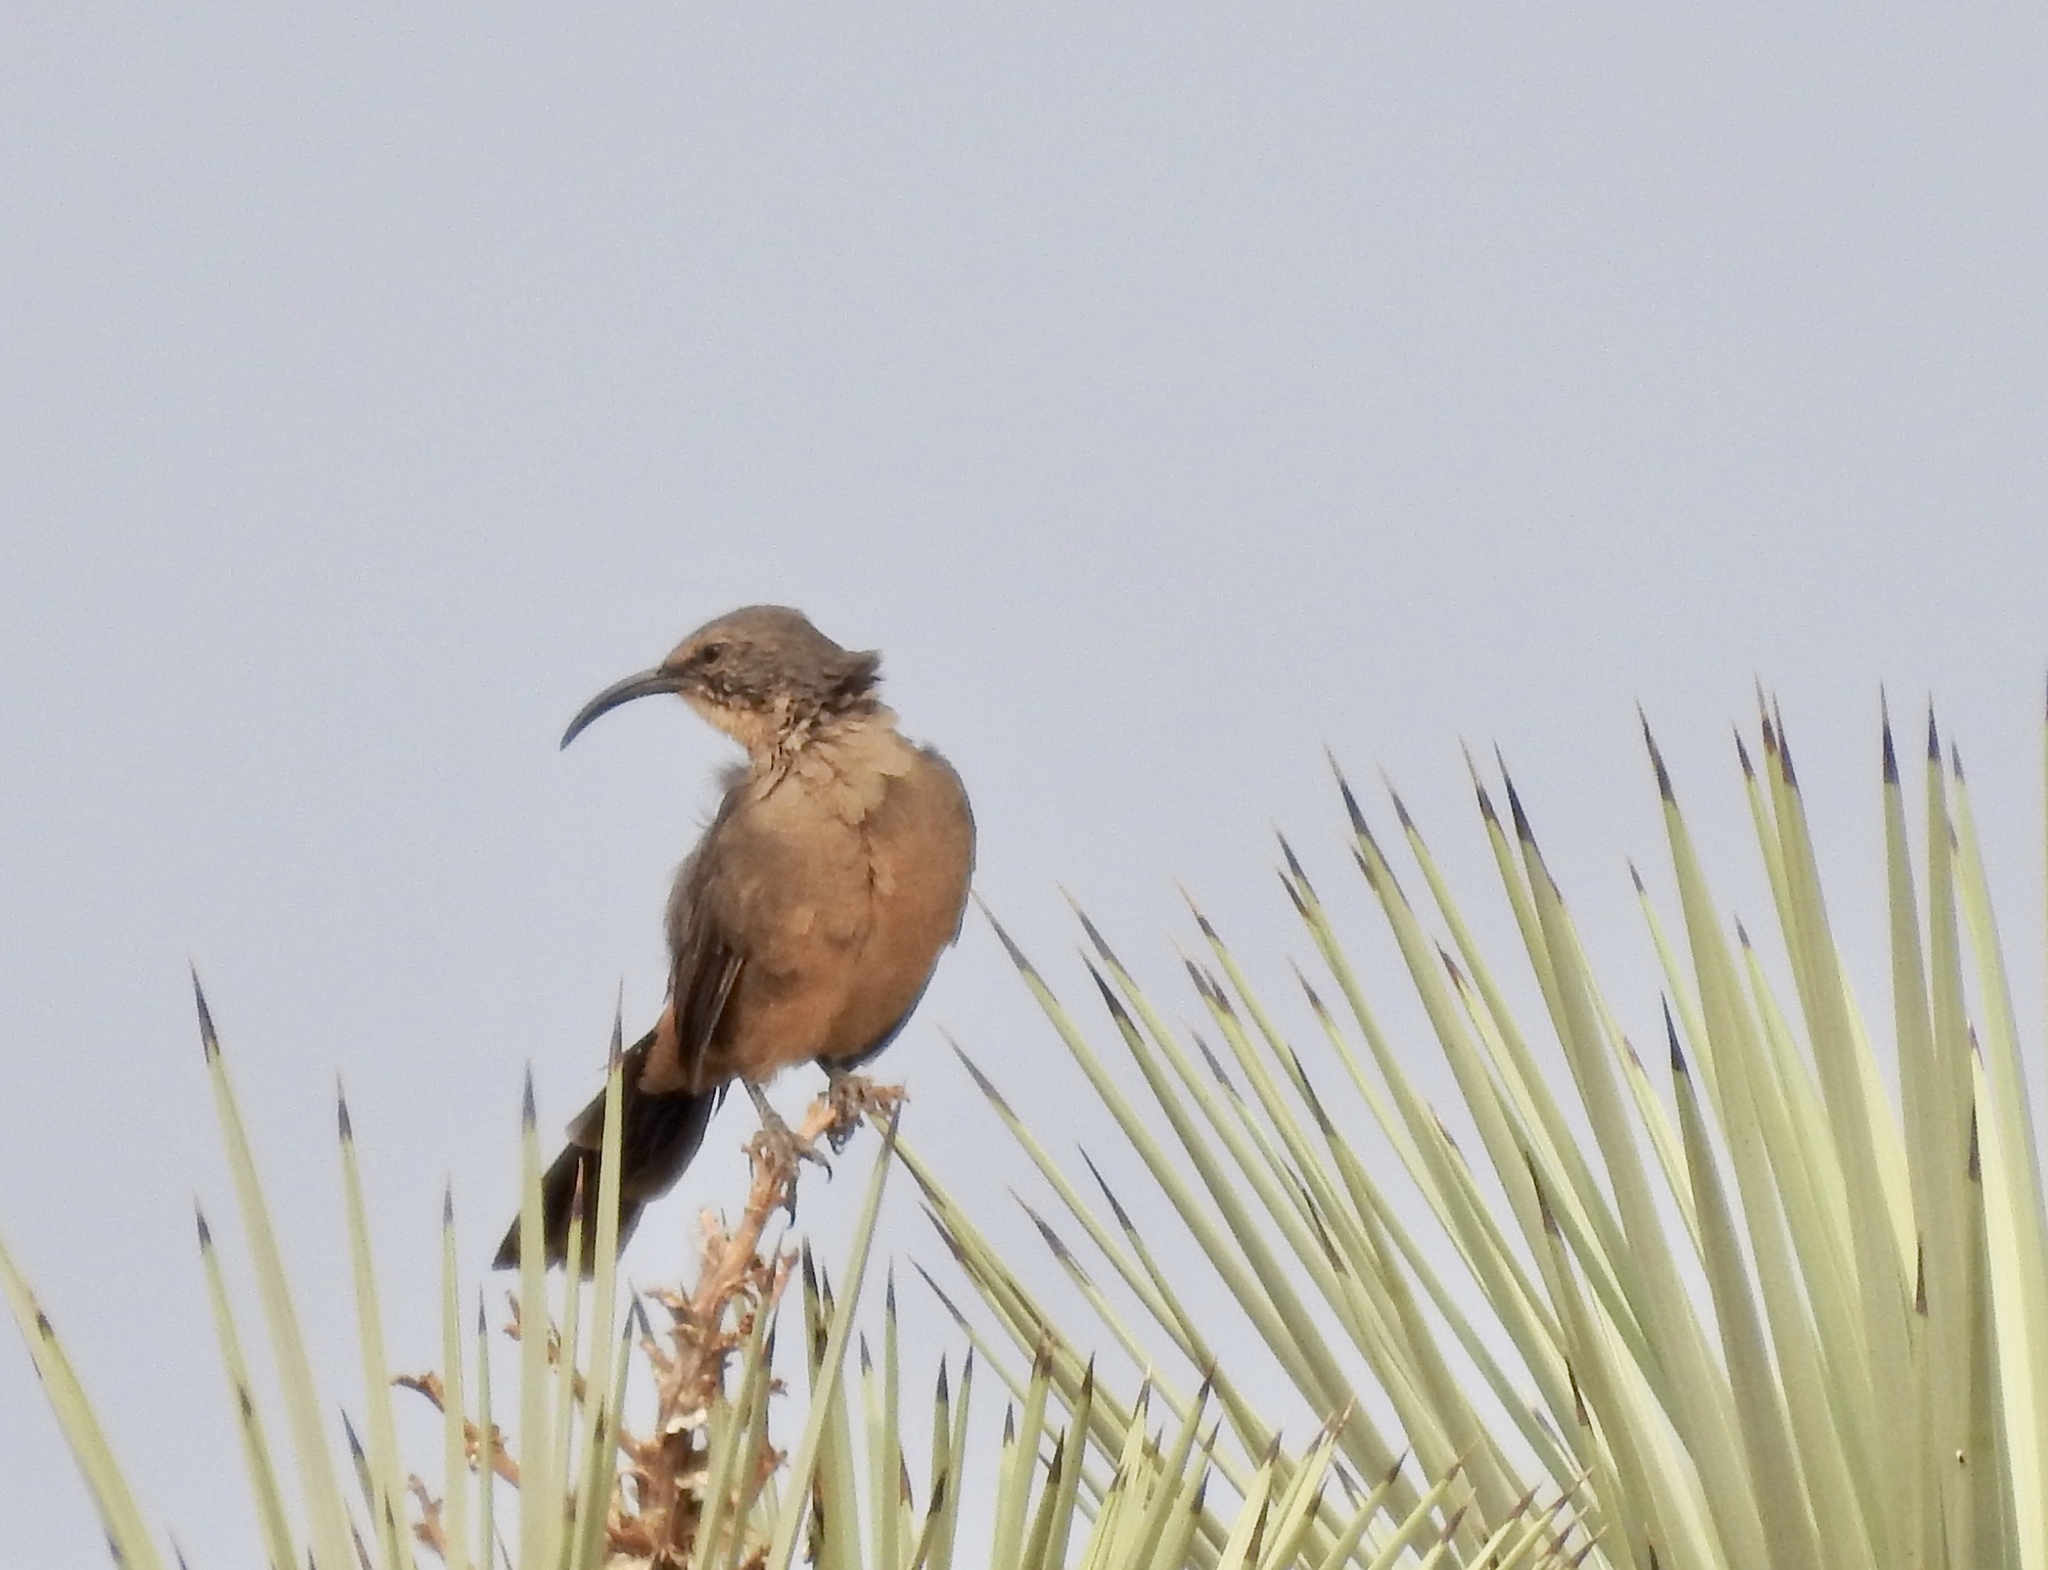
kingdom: Animalia
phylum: Chordata
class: Aves
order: Passeriformes
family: Mimidae
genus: Toxostoma
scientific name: Toxostoma redivivum
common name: California thrasher
